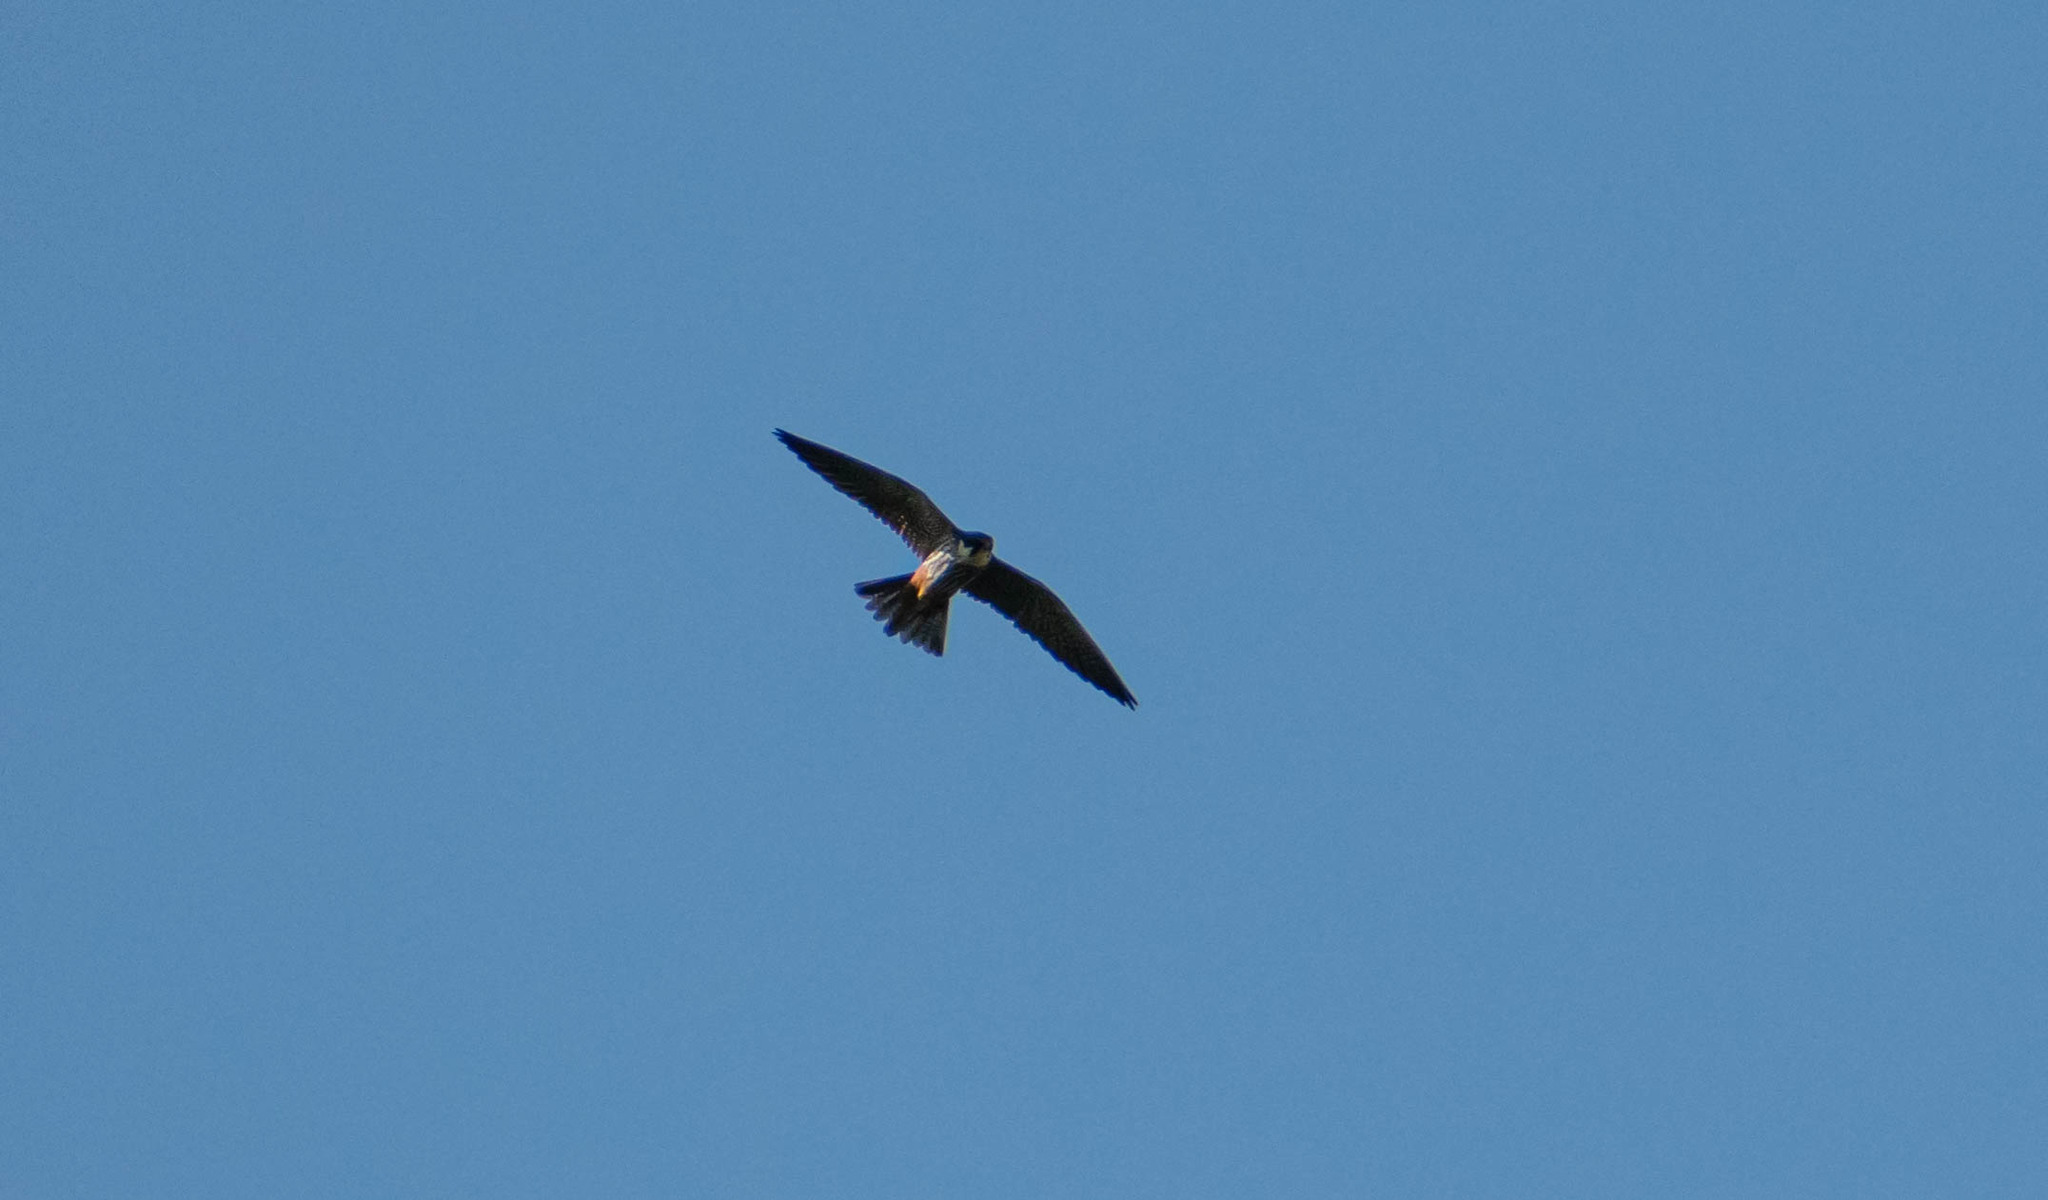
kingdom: Animalia
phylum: Chordata
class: Aves
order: Falconiformes
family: Falconidae
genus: Falco
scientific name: Falco subbuteo
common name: Eurasian hobby
